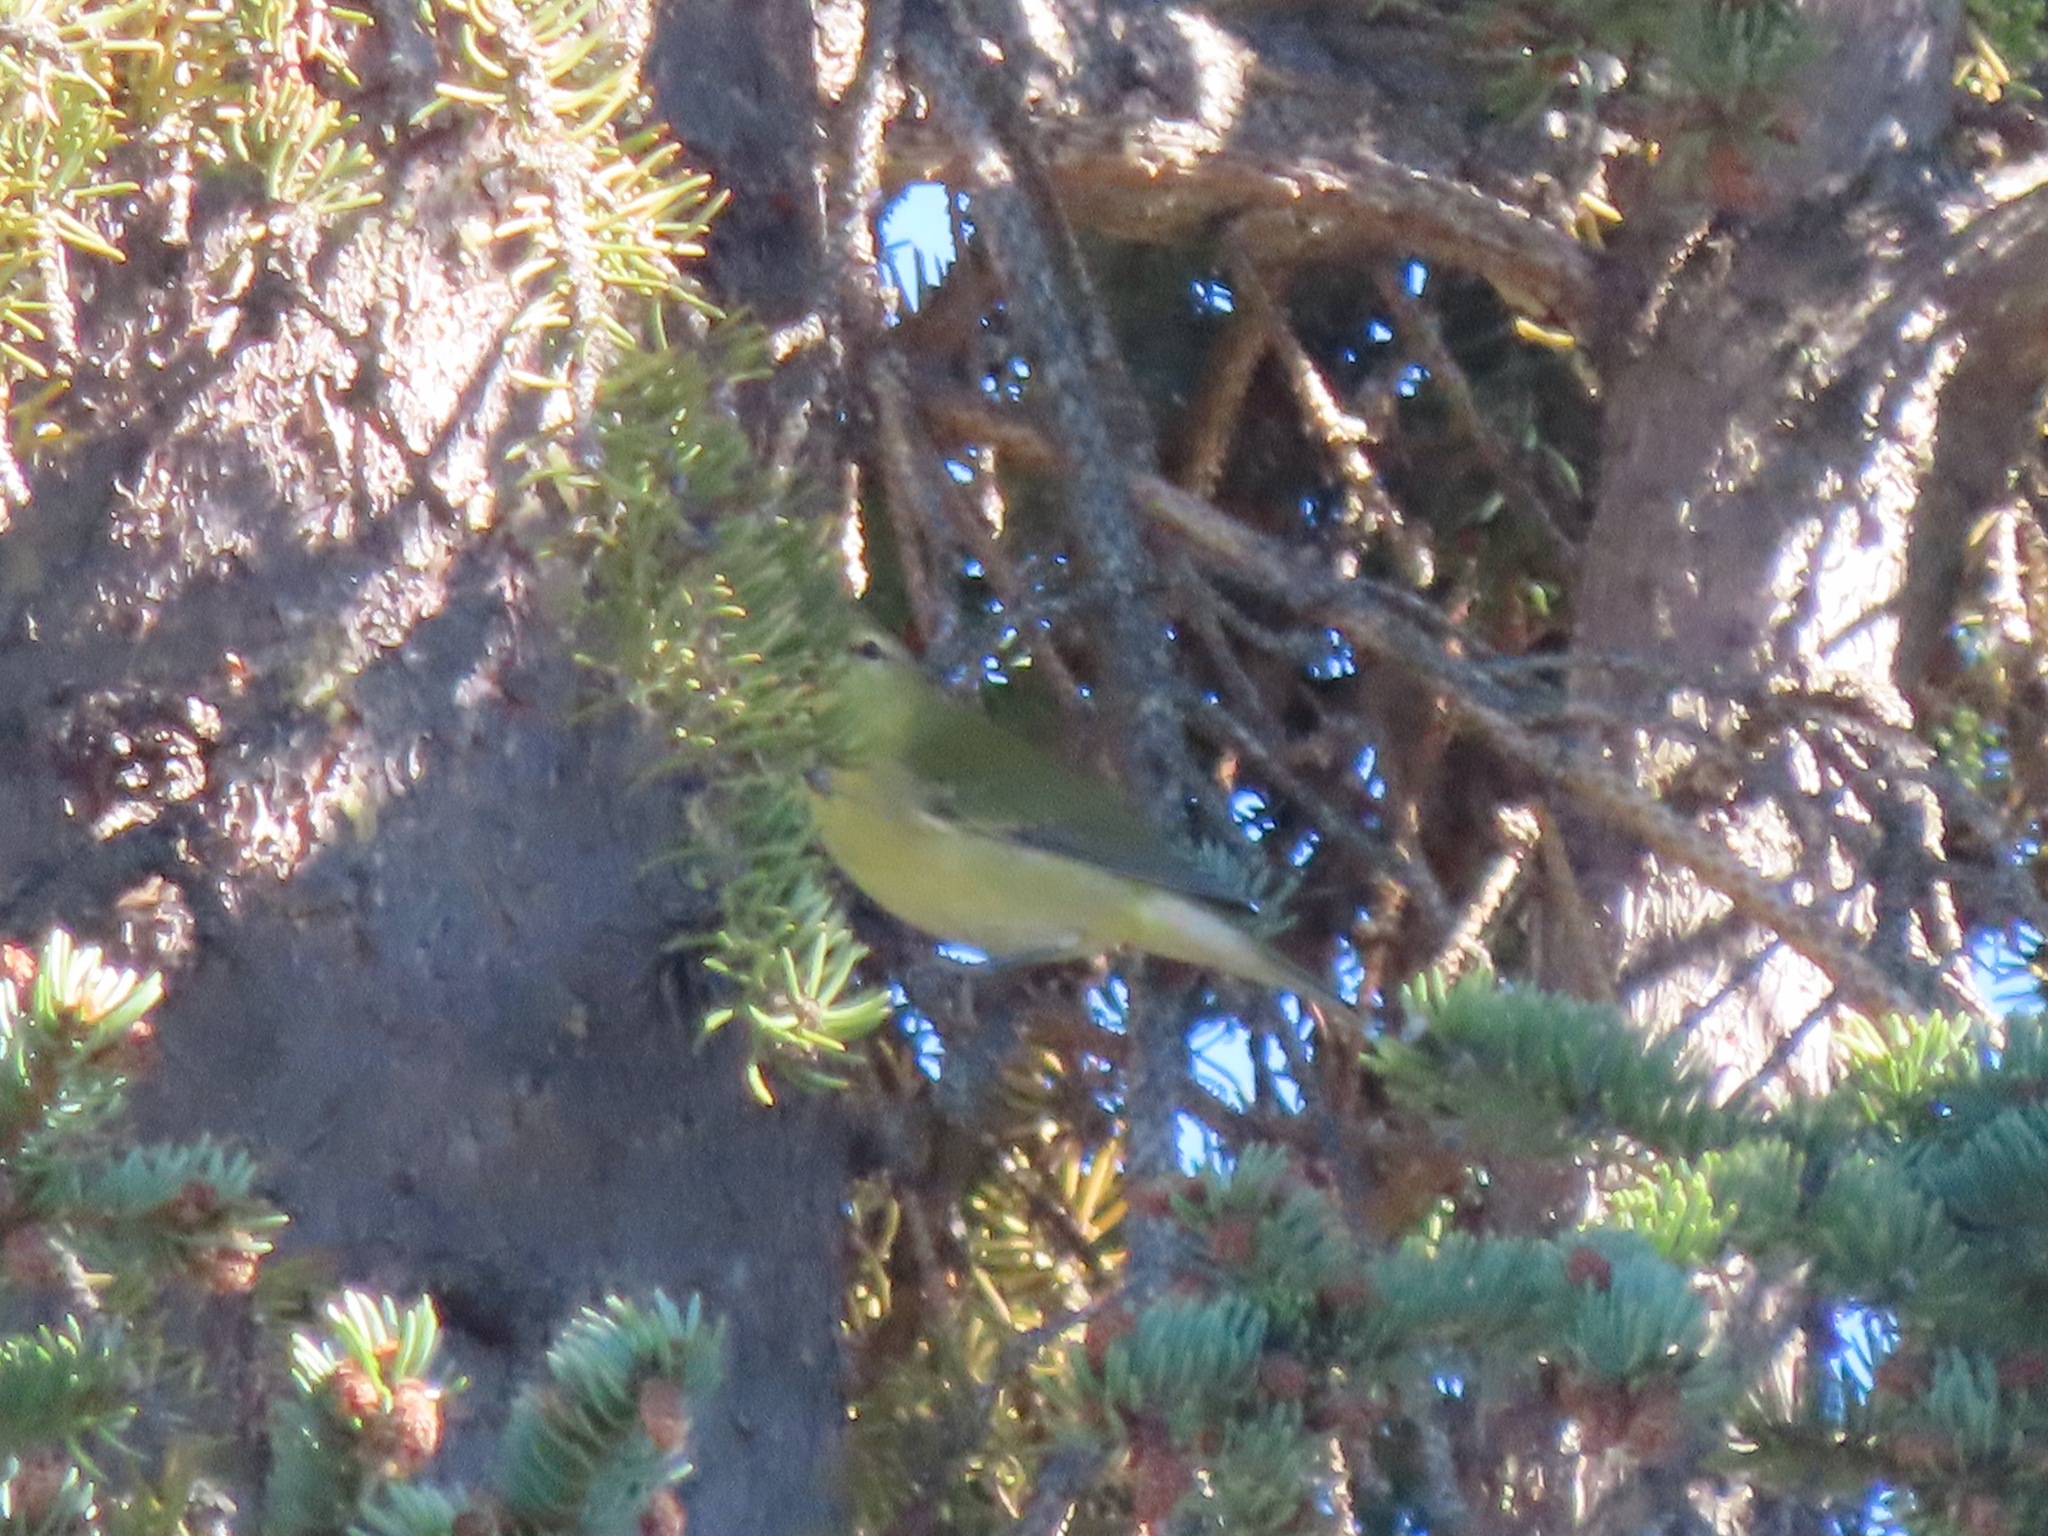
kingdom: Animalia
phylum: Chordata
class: Aves
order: Passeriformes
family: Parulidae
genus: Leiothlypis
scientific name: Leiothlypis peregrina
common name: Tennessee warbler
